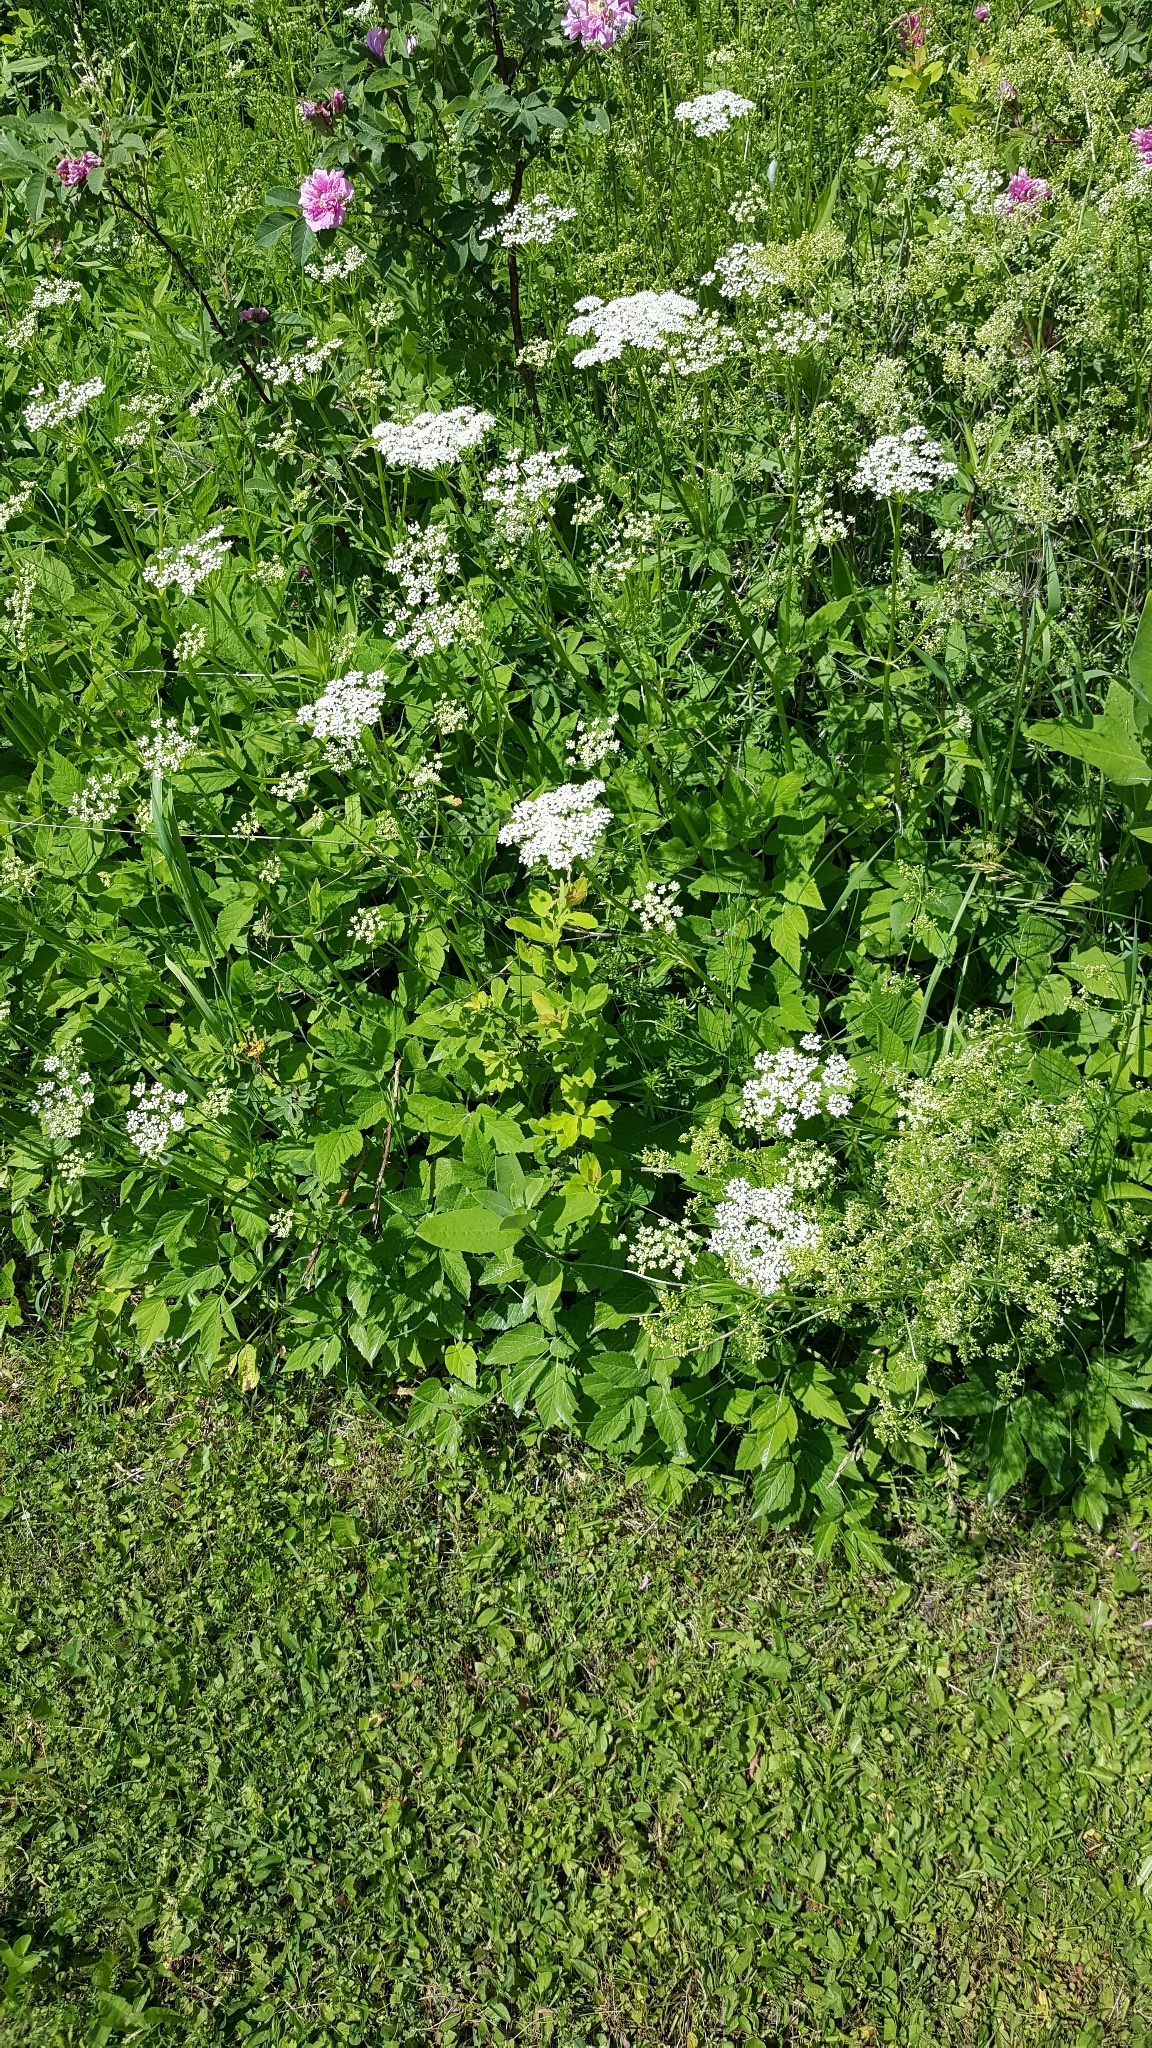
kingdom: Plantae
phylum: Tracheophyta
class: Magnoliopsida
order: Apiales
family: Apiaceae
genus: Aegopodium
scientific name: Aegopodium podagraria
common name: Ground-elder
